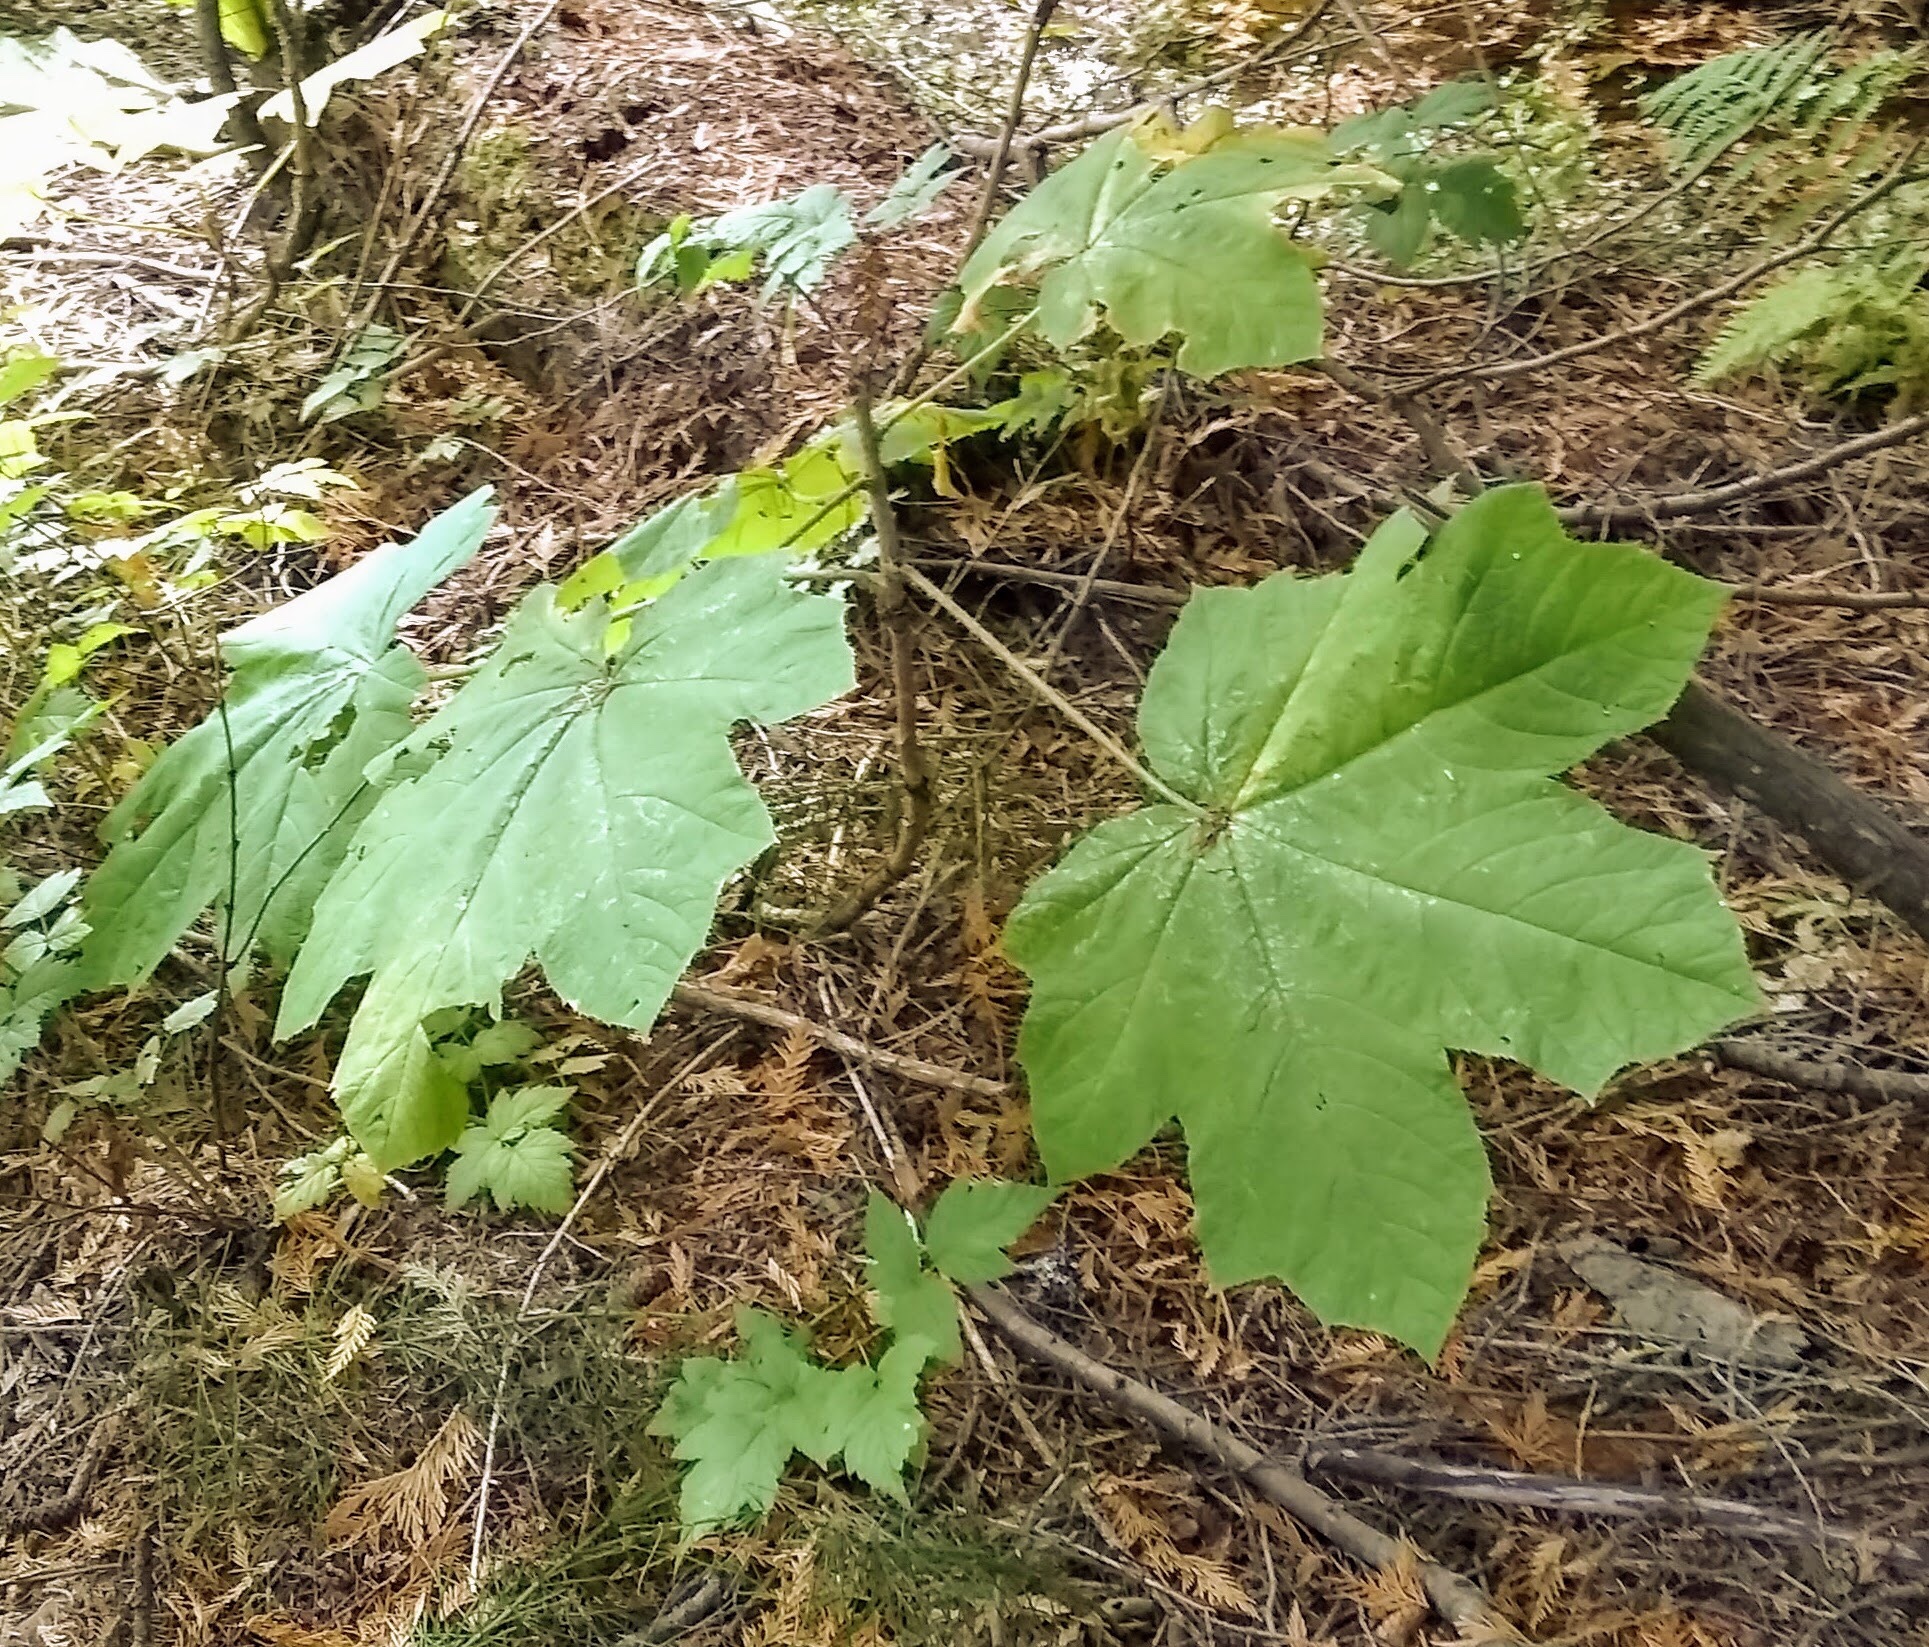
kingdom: Plantae
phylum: Tracheophyta
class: Magnoliopsida
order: Apiales
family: Araliaceae
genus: Oplopanax
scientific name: Oplopanax horridus
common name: Devil's walking-stick
